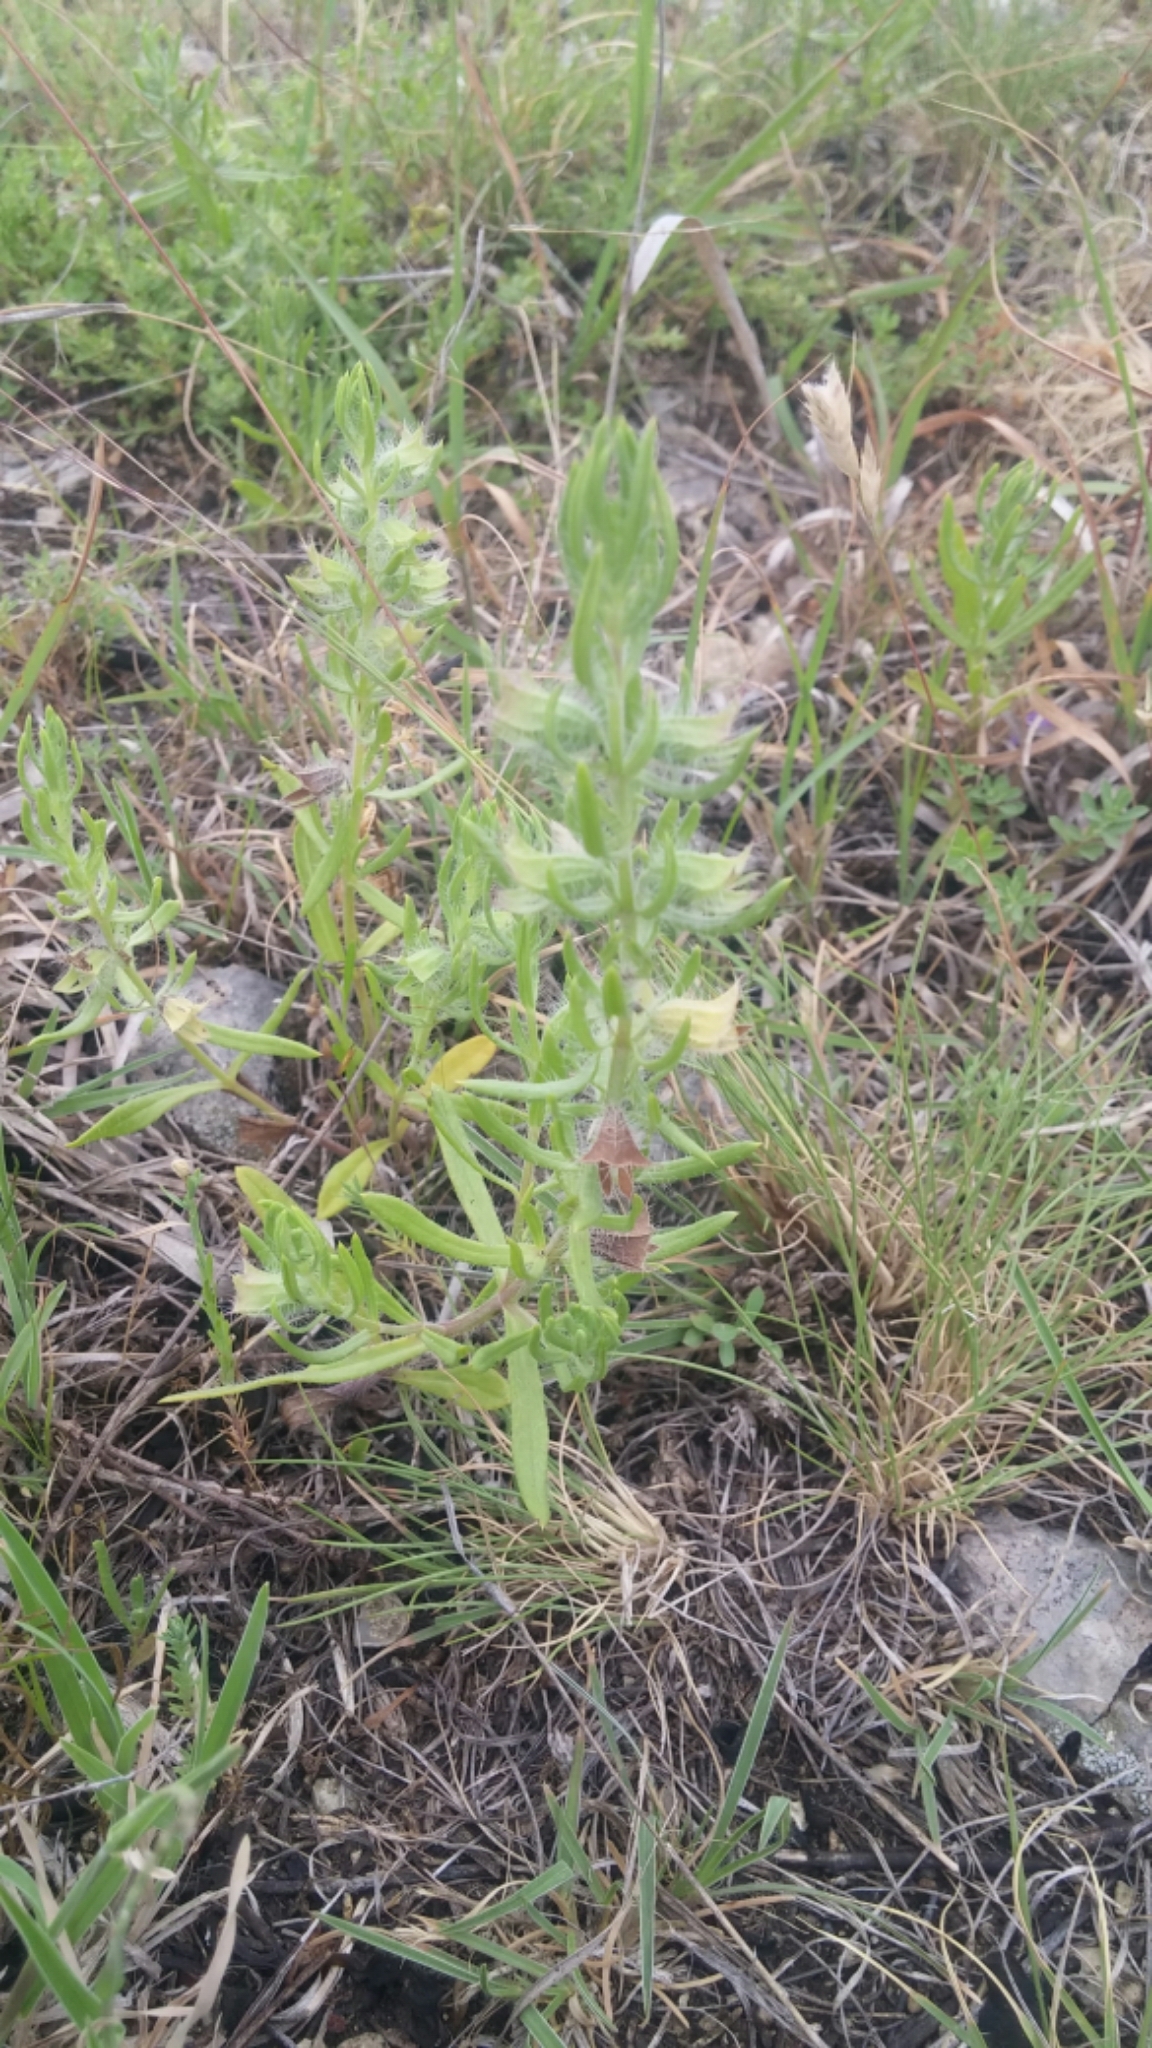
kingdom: Plantae
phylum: Tracheophyta
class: Magnoliopsida
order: Lamiales
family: Lamiaceae
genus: Salvia
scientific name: Salvia texana
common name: Texas sage
